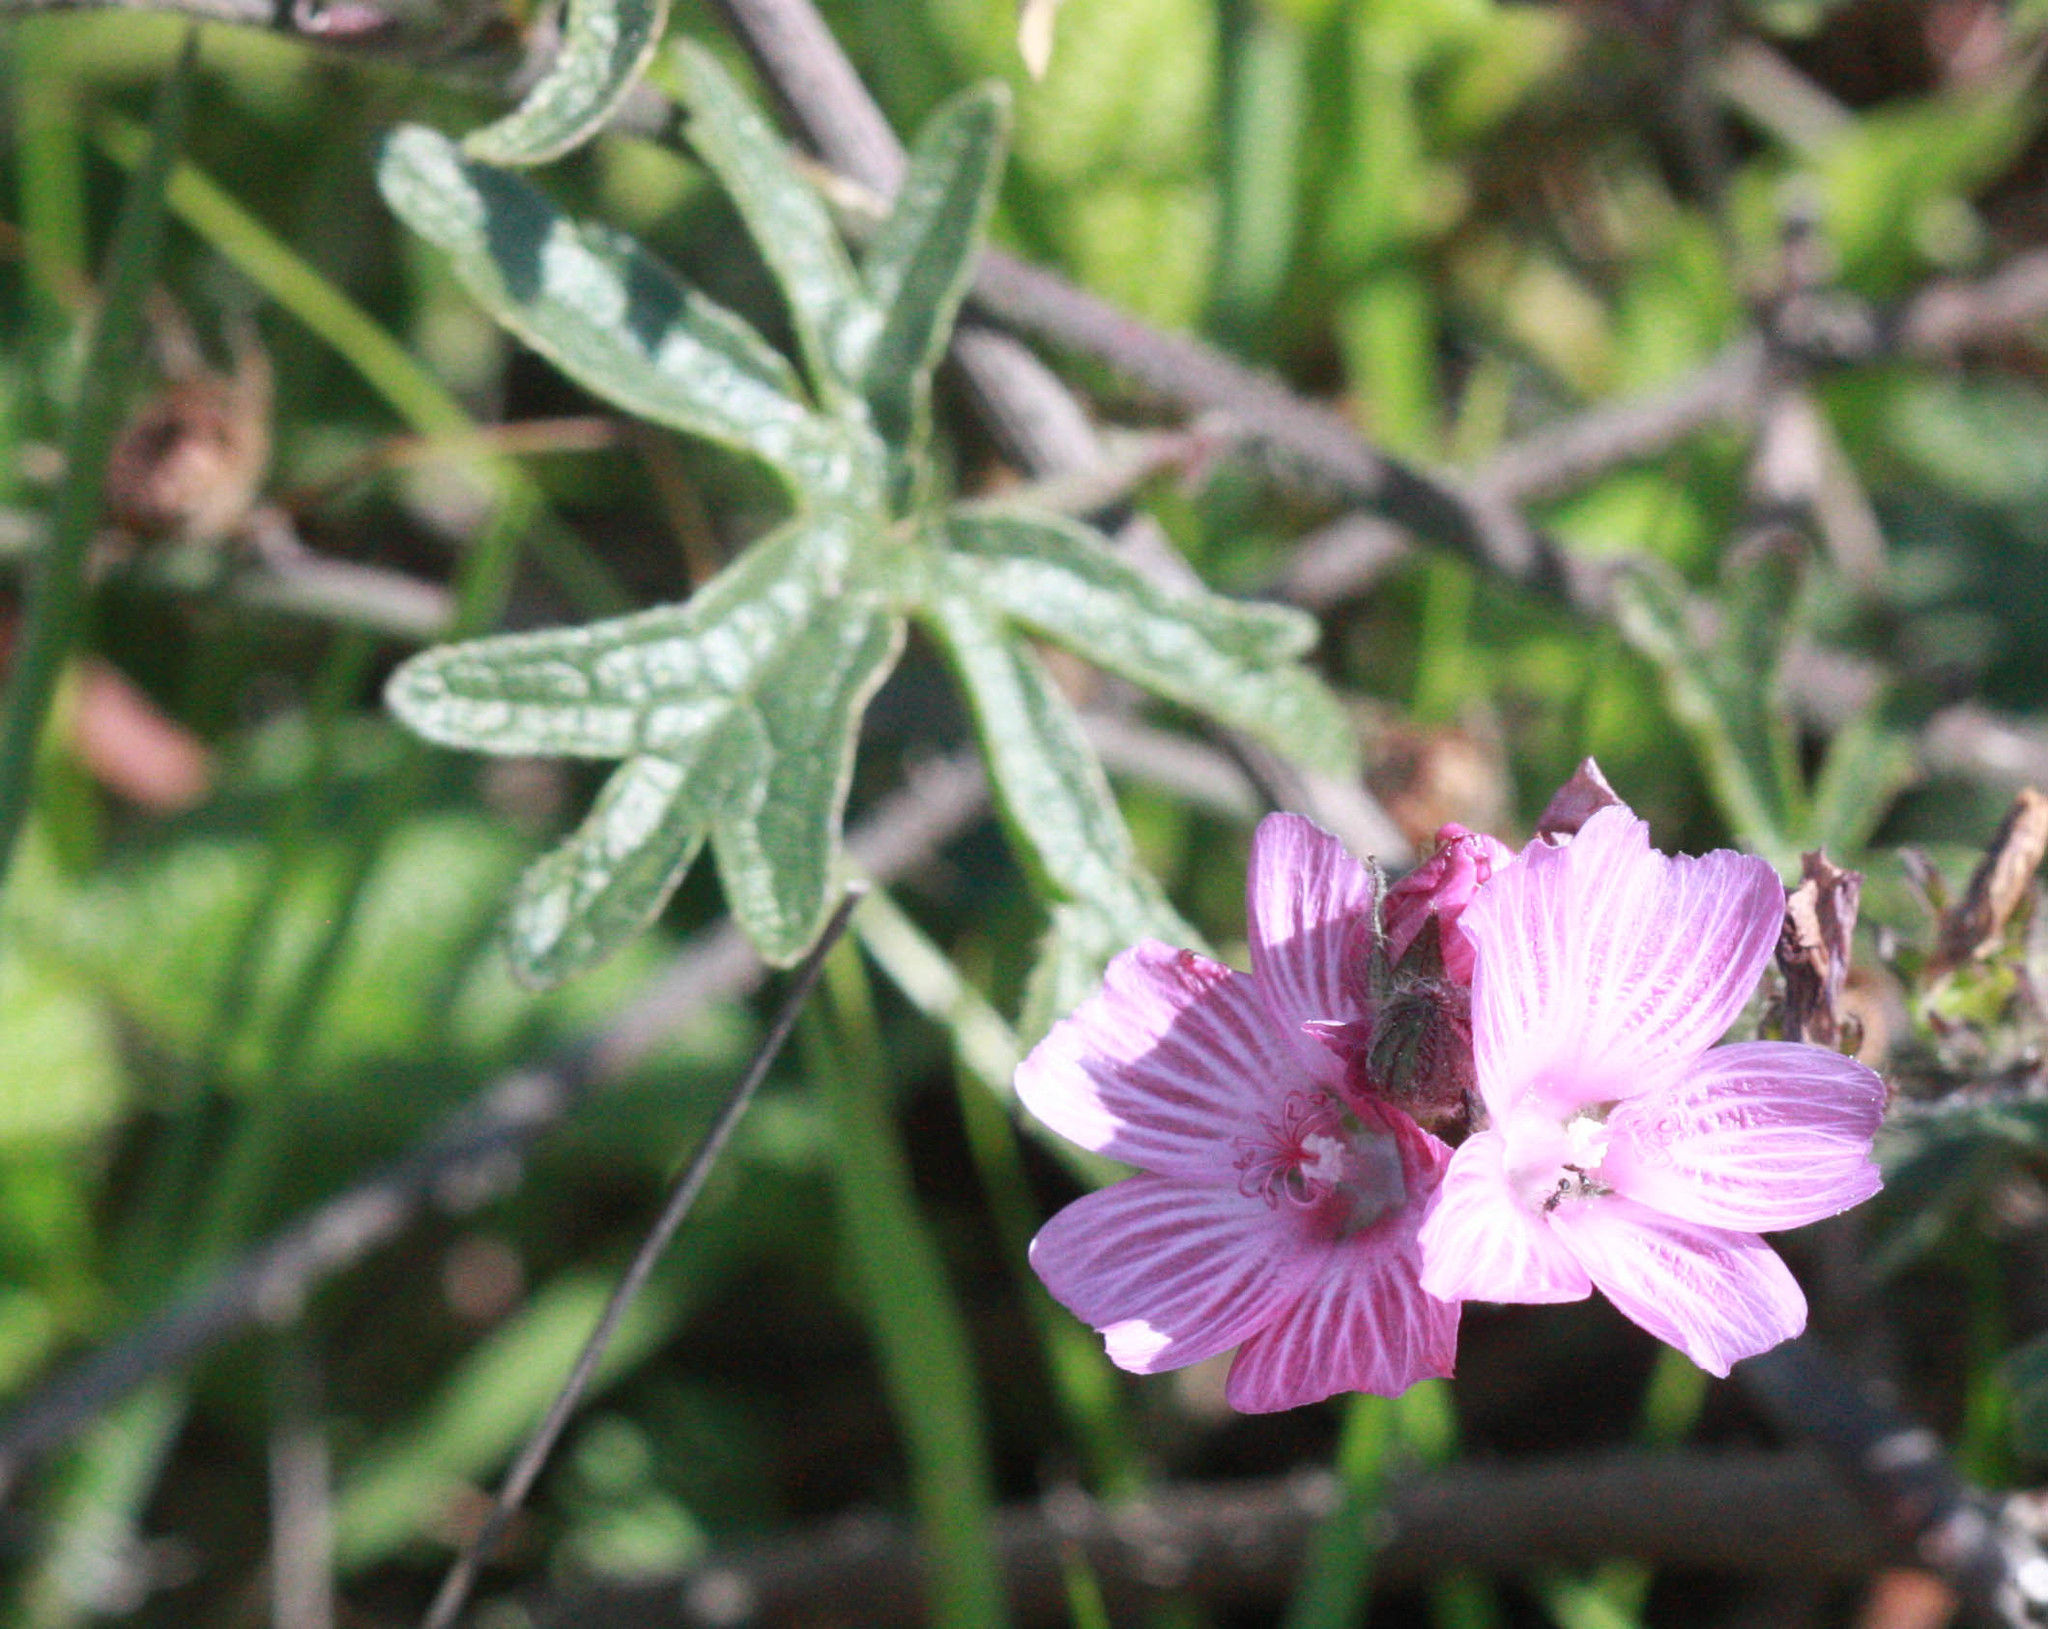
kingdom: Plantae
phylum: Tracheophyta
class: Magnoliopsida
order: Malvales
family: Malvaceae
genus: Sidalcea
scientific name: Sidalcea malviflora
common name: Greek mallow
